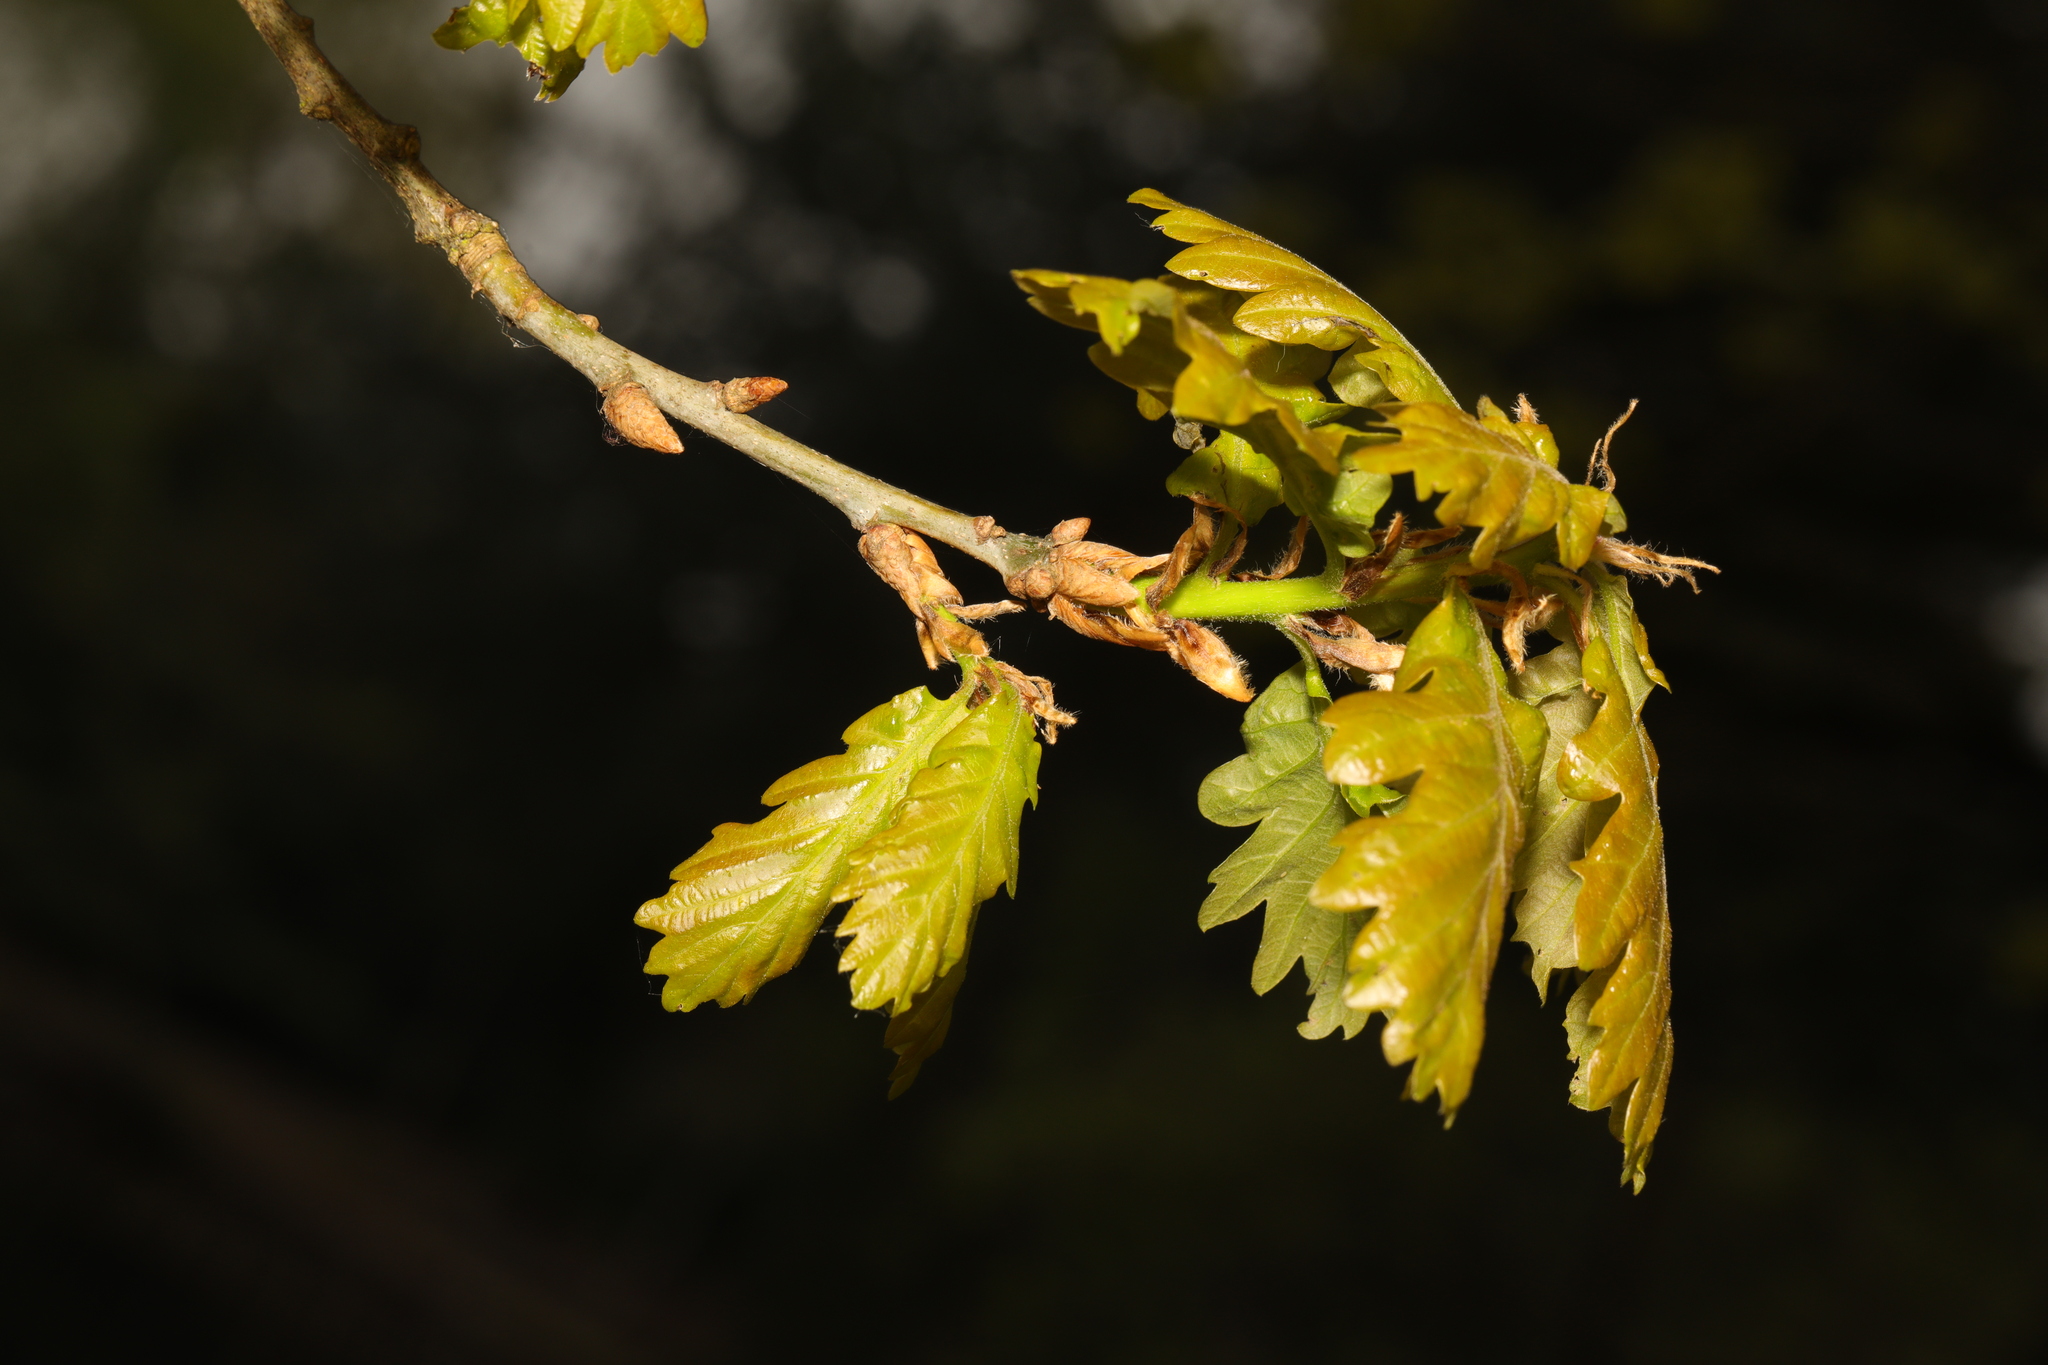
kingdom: Plantae
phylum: Tracheophyta
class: Magnoliopsida
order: Fagales
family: Fagaceae
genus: Quercus
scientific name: Quercus cerris
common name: Turkey oak
